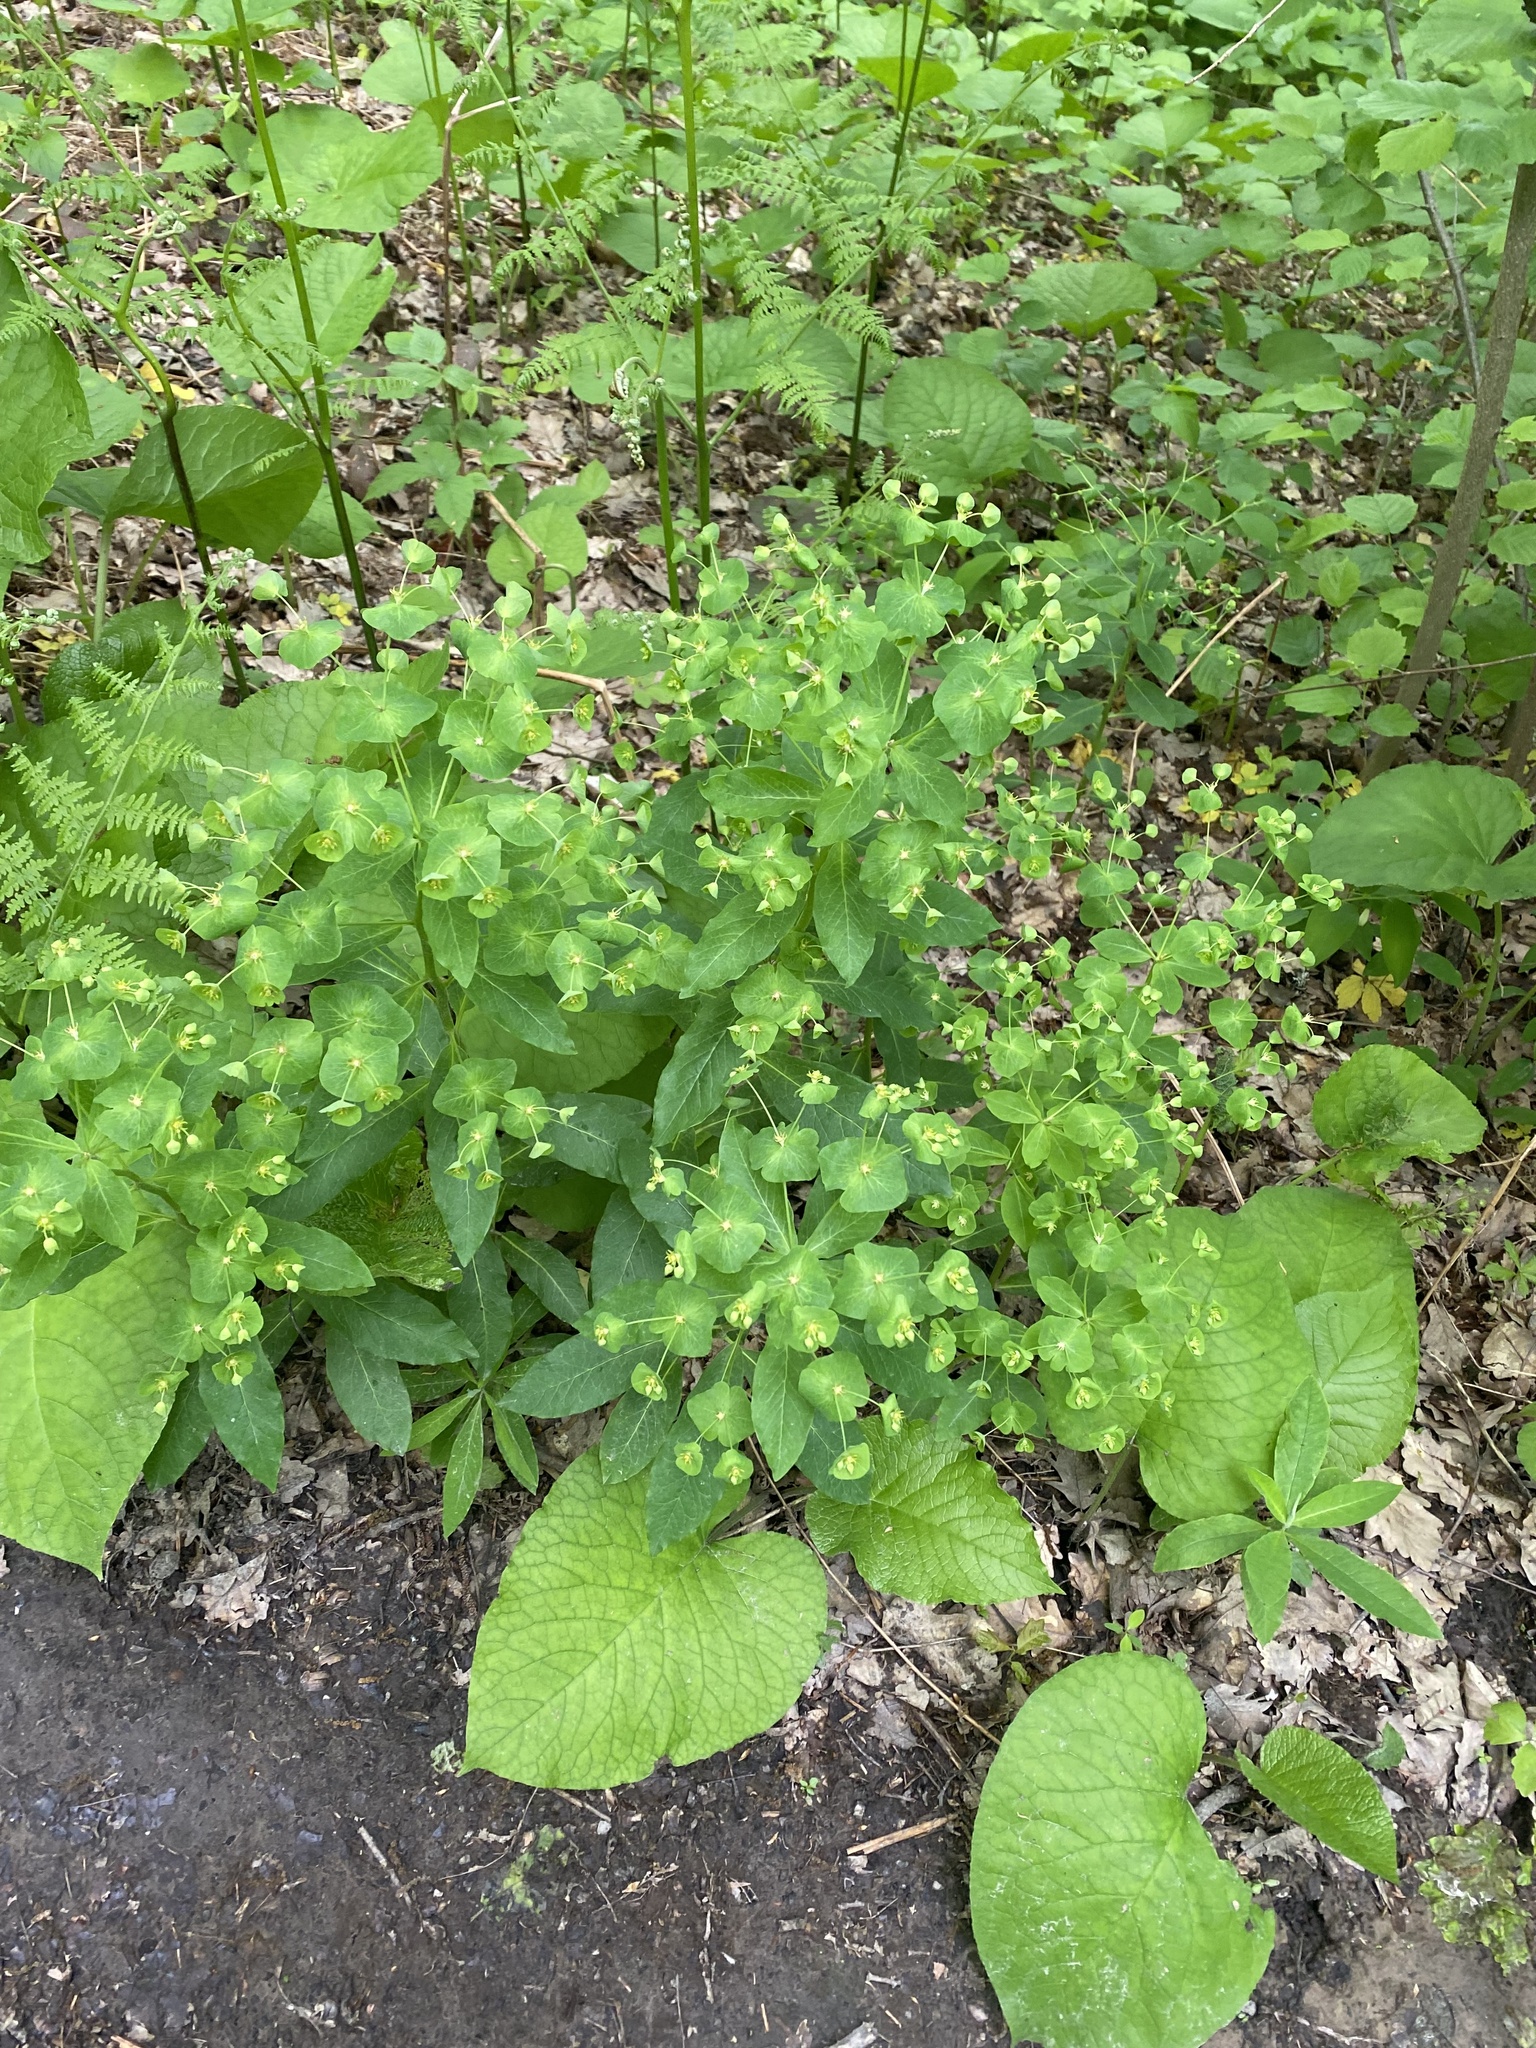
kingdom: Plantae
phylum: Tracheophyta
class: Magnoliopsida
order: Malpighiales
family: Euphorbiaceae
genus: Euphorbia
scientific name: Euphorbia squamosa
